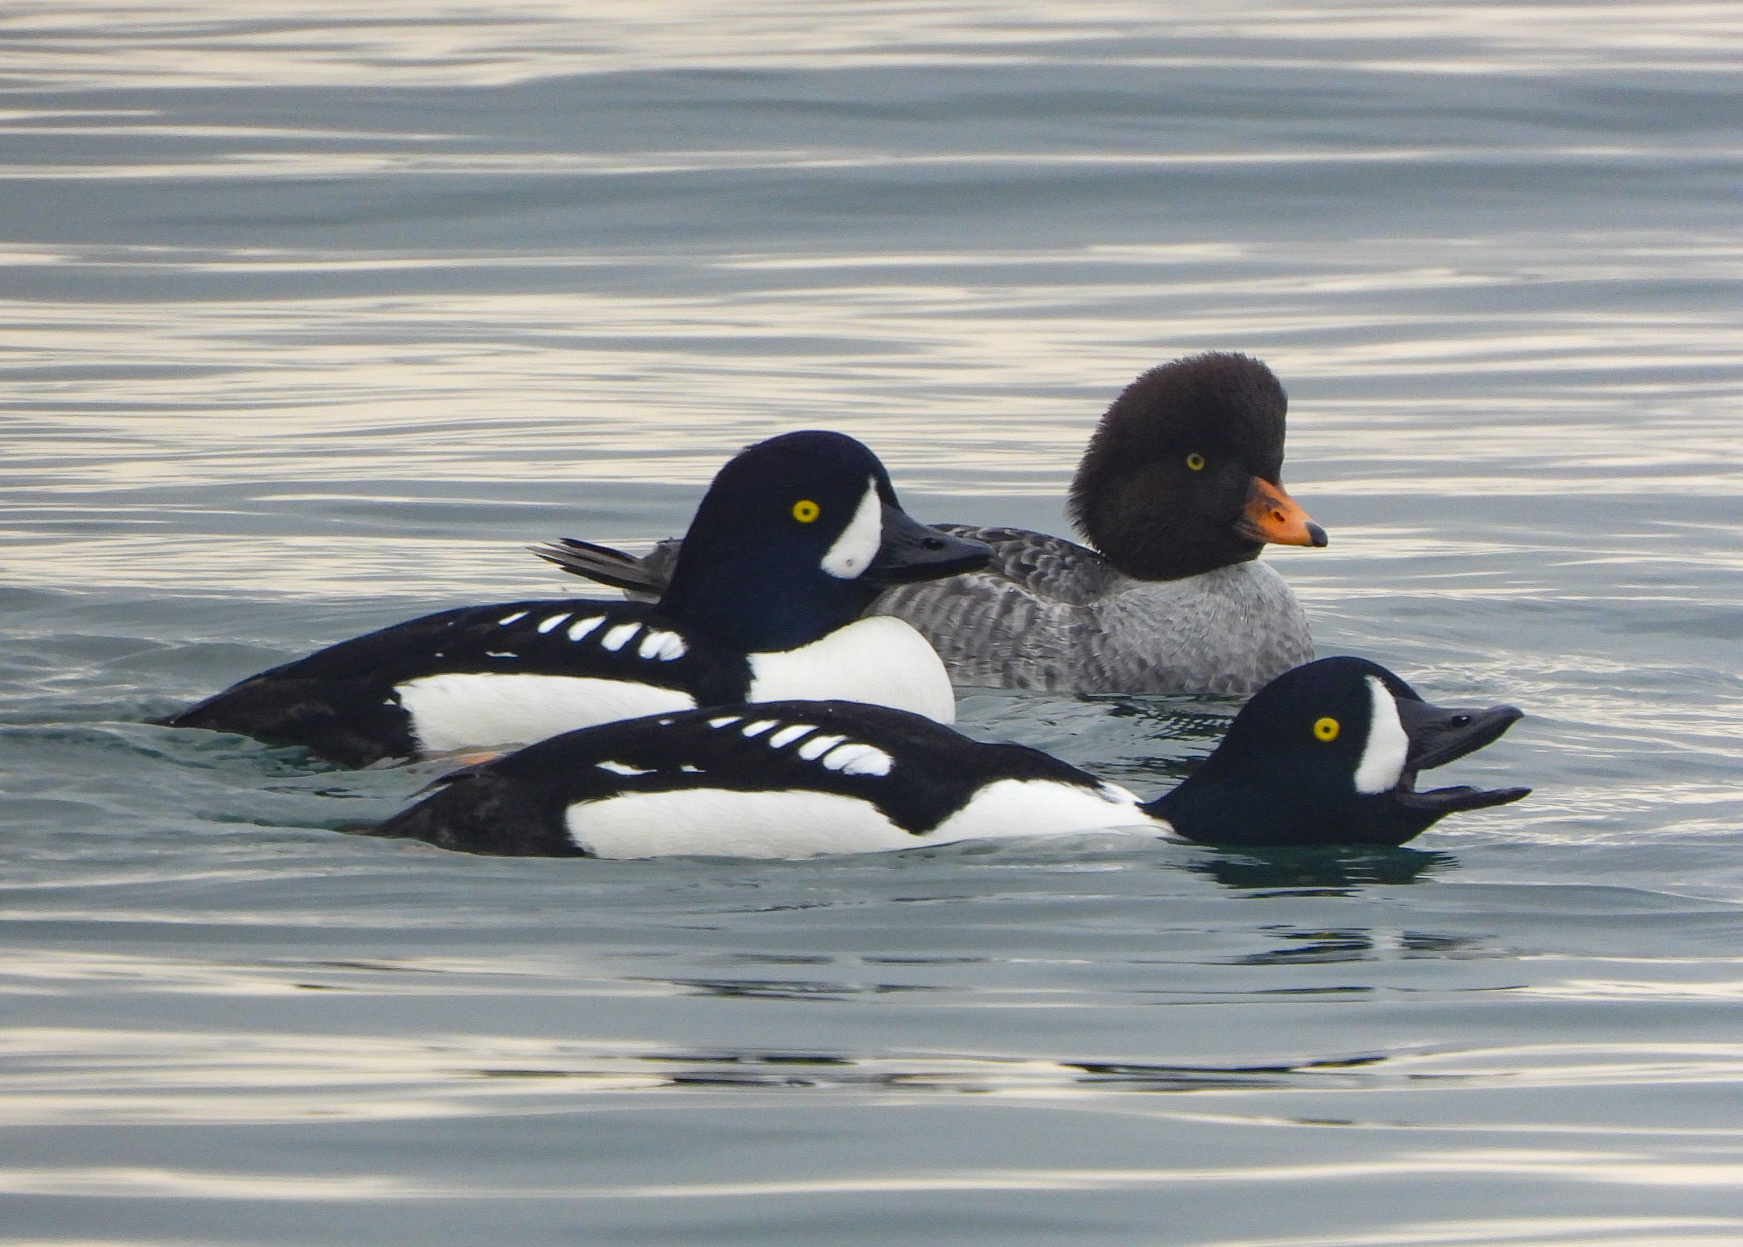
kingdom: Animalia
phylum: Chordata
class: Aves
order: Anseriformes
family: Anatidae
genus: Bucephala
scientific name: Bucephala islandica
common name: Barrow's goldeneye
